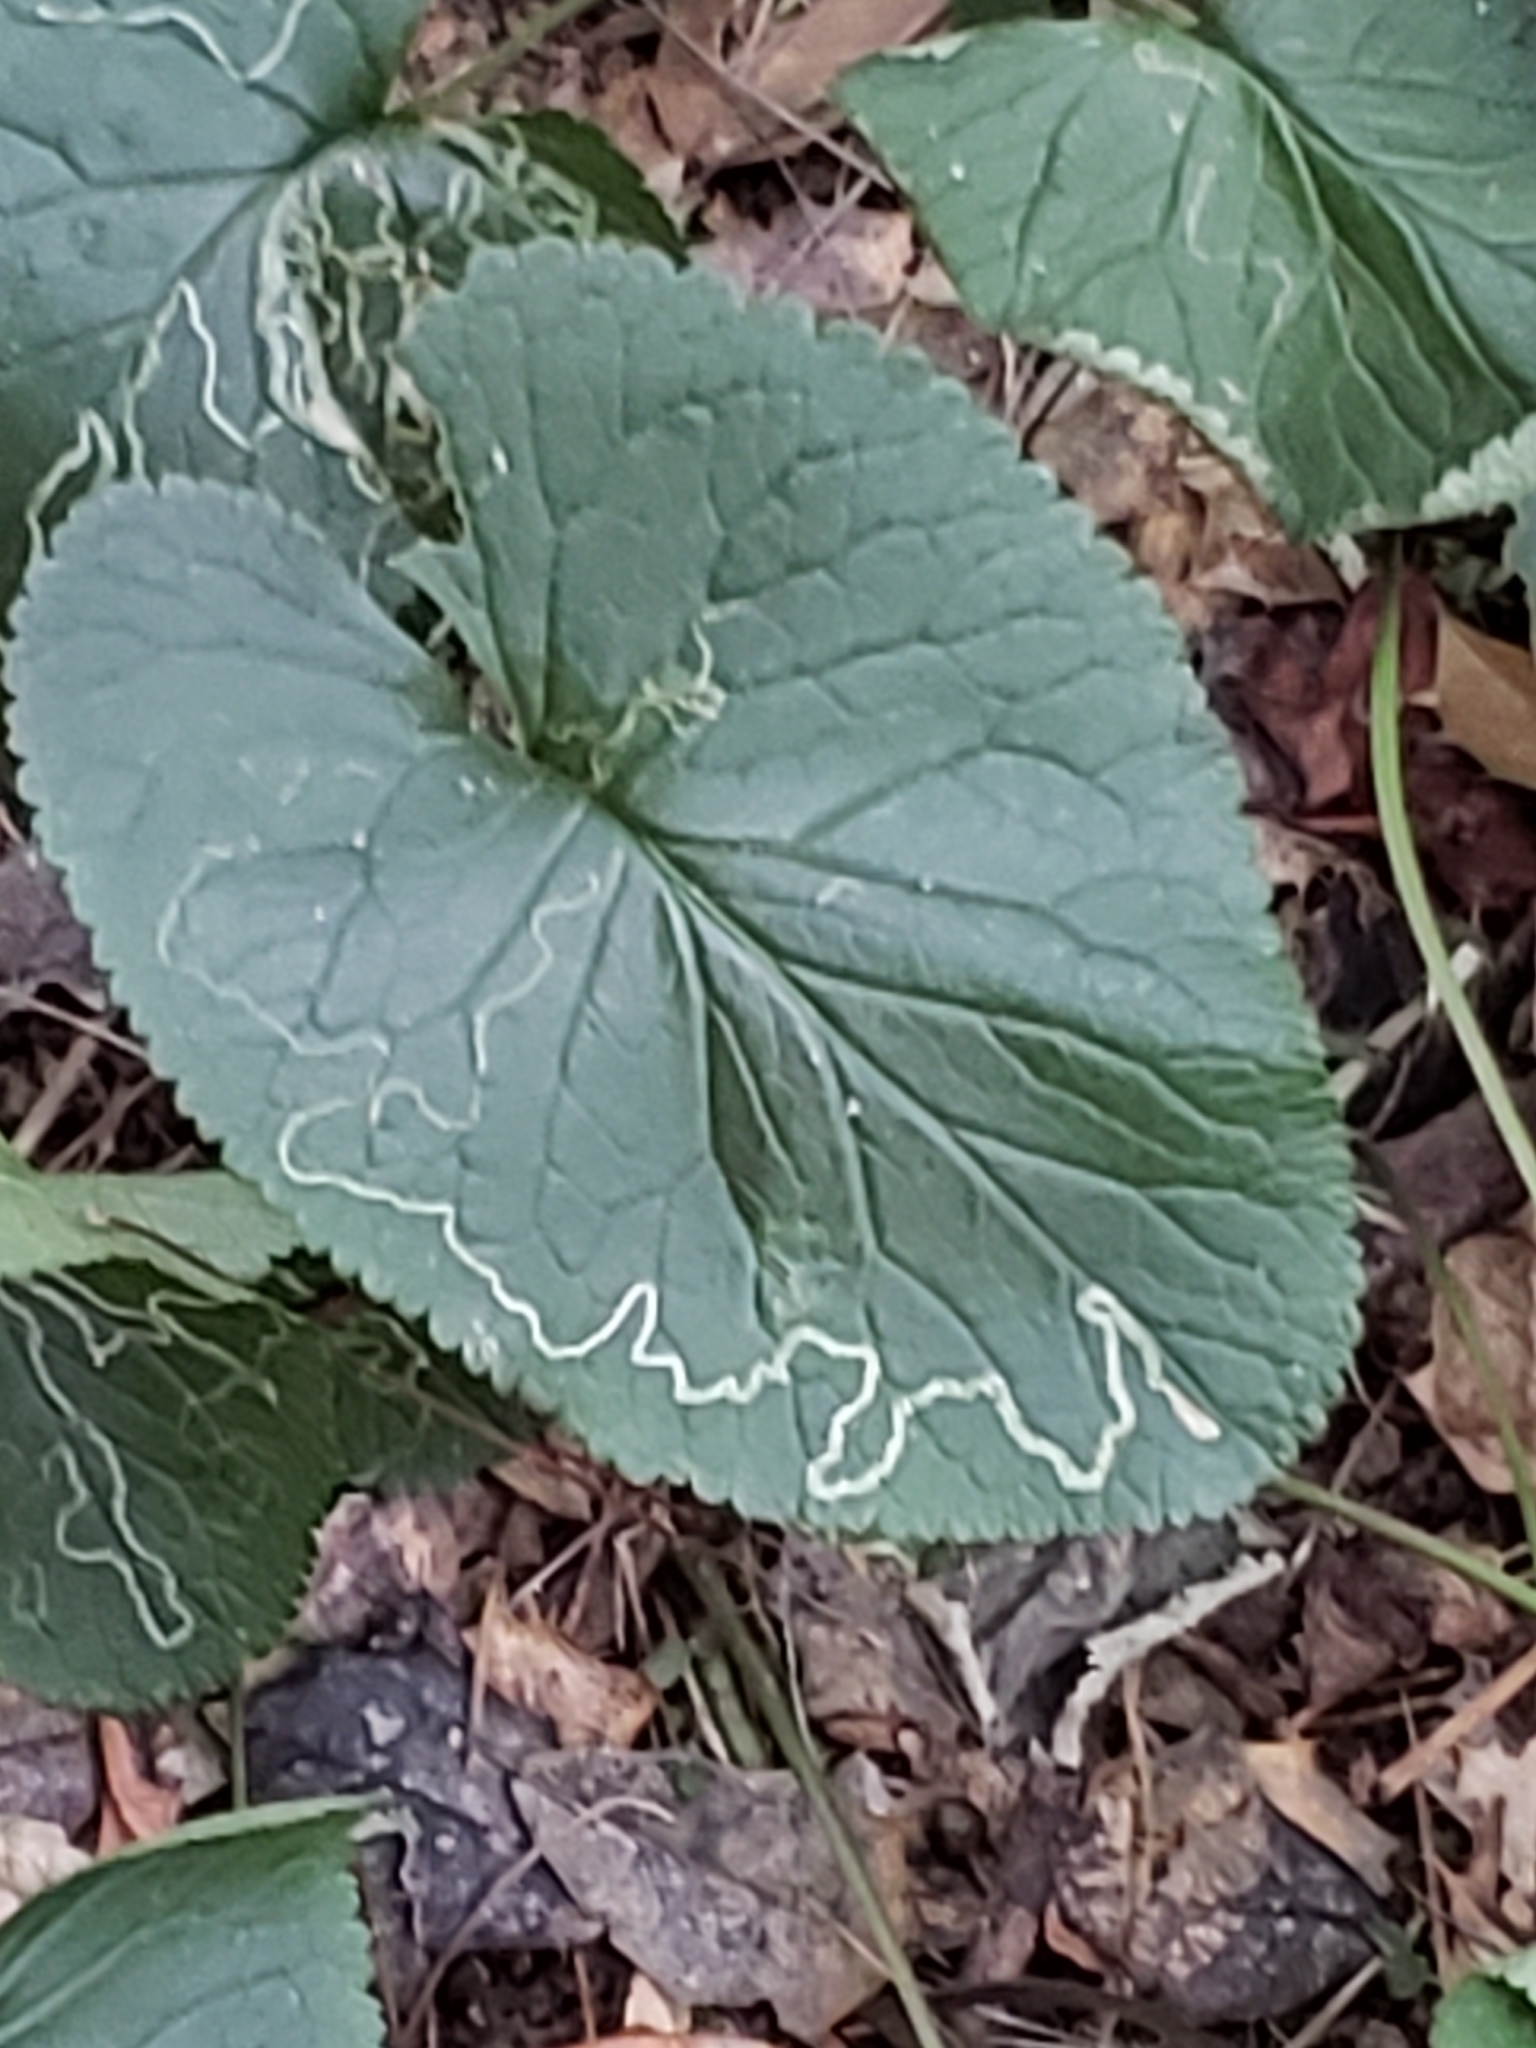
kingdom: Animalia
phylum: Arthropoda
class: Insecta
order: Lepidoptera
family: Gracillariidae
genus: Phyllocnistis
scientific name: Phyllocnistis insignis
